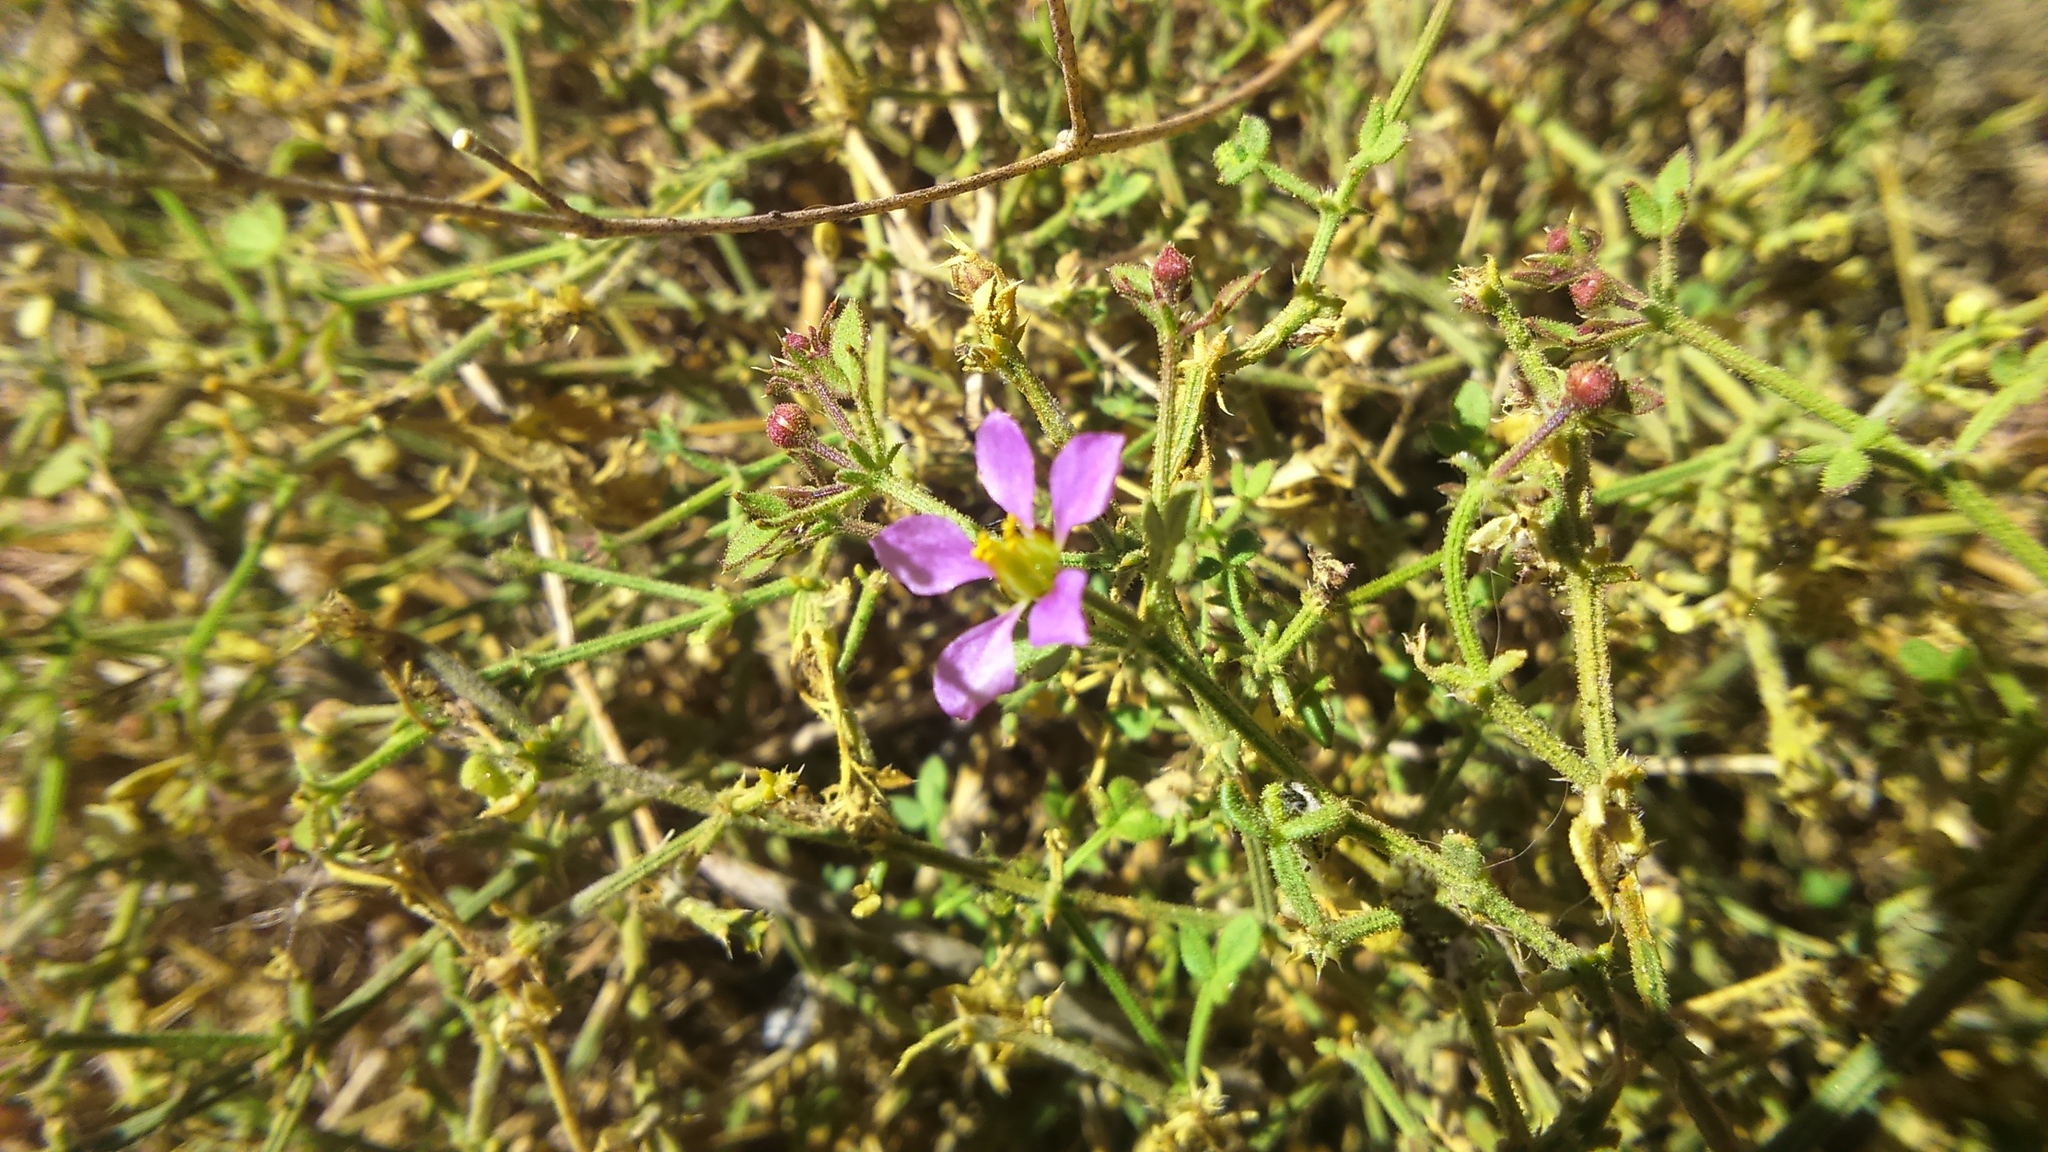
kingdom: Plantae
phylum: Tracheophyta
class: Magnoliopsida
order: Zygophyllales
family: Zygophyllaceae
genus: Fagonia
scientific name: Fagonia chilensis
